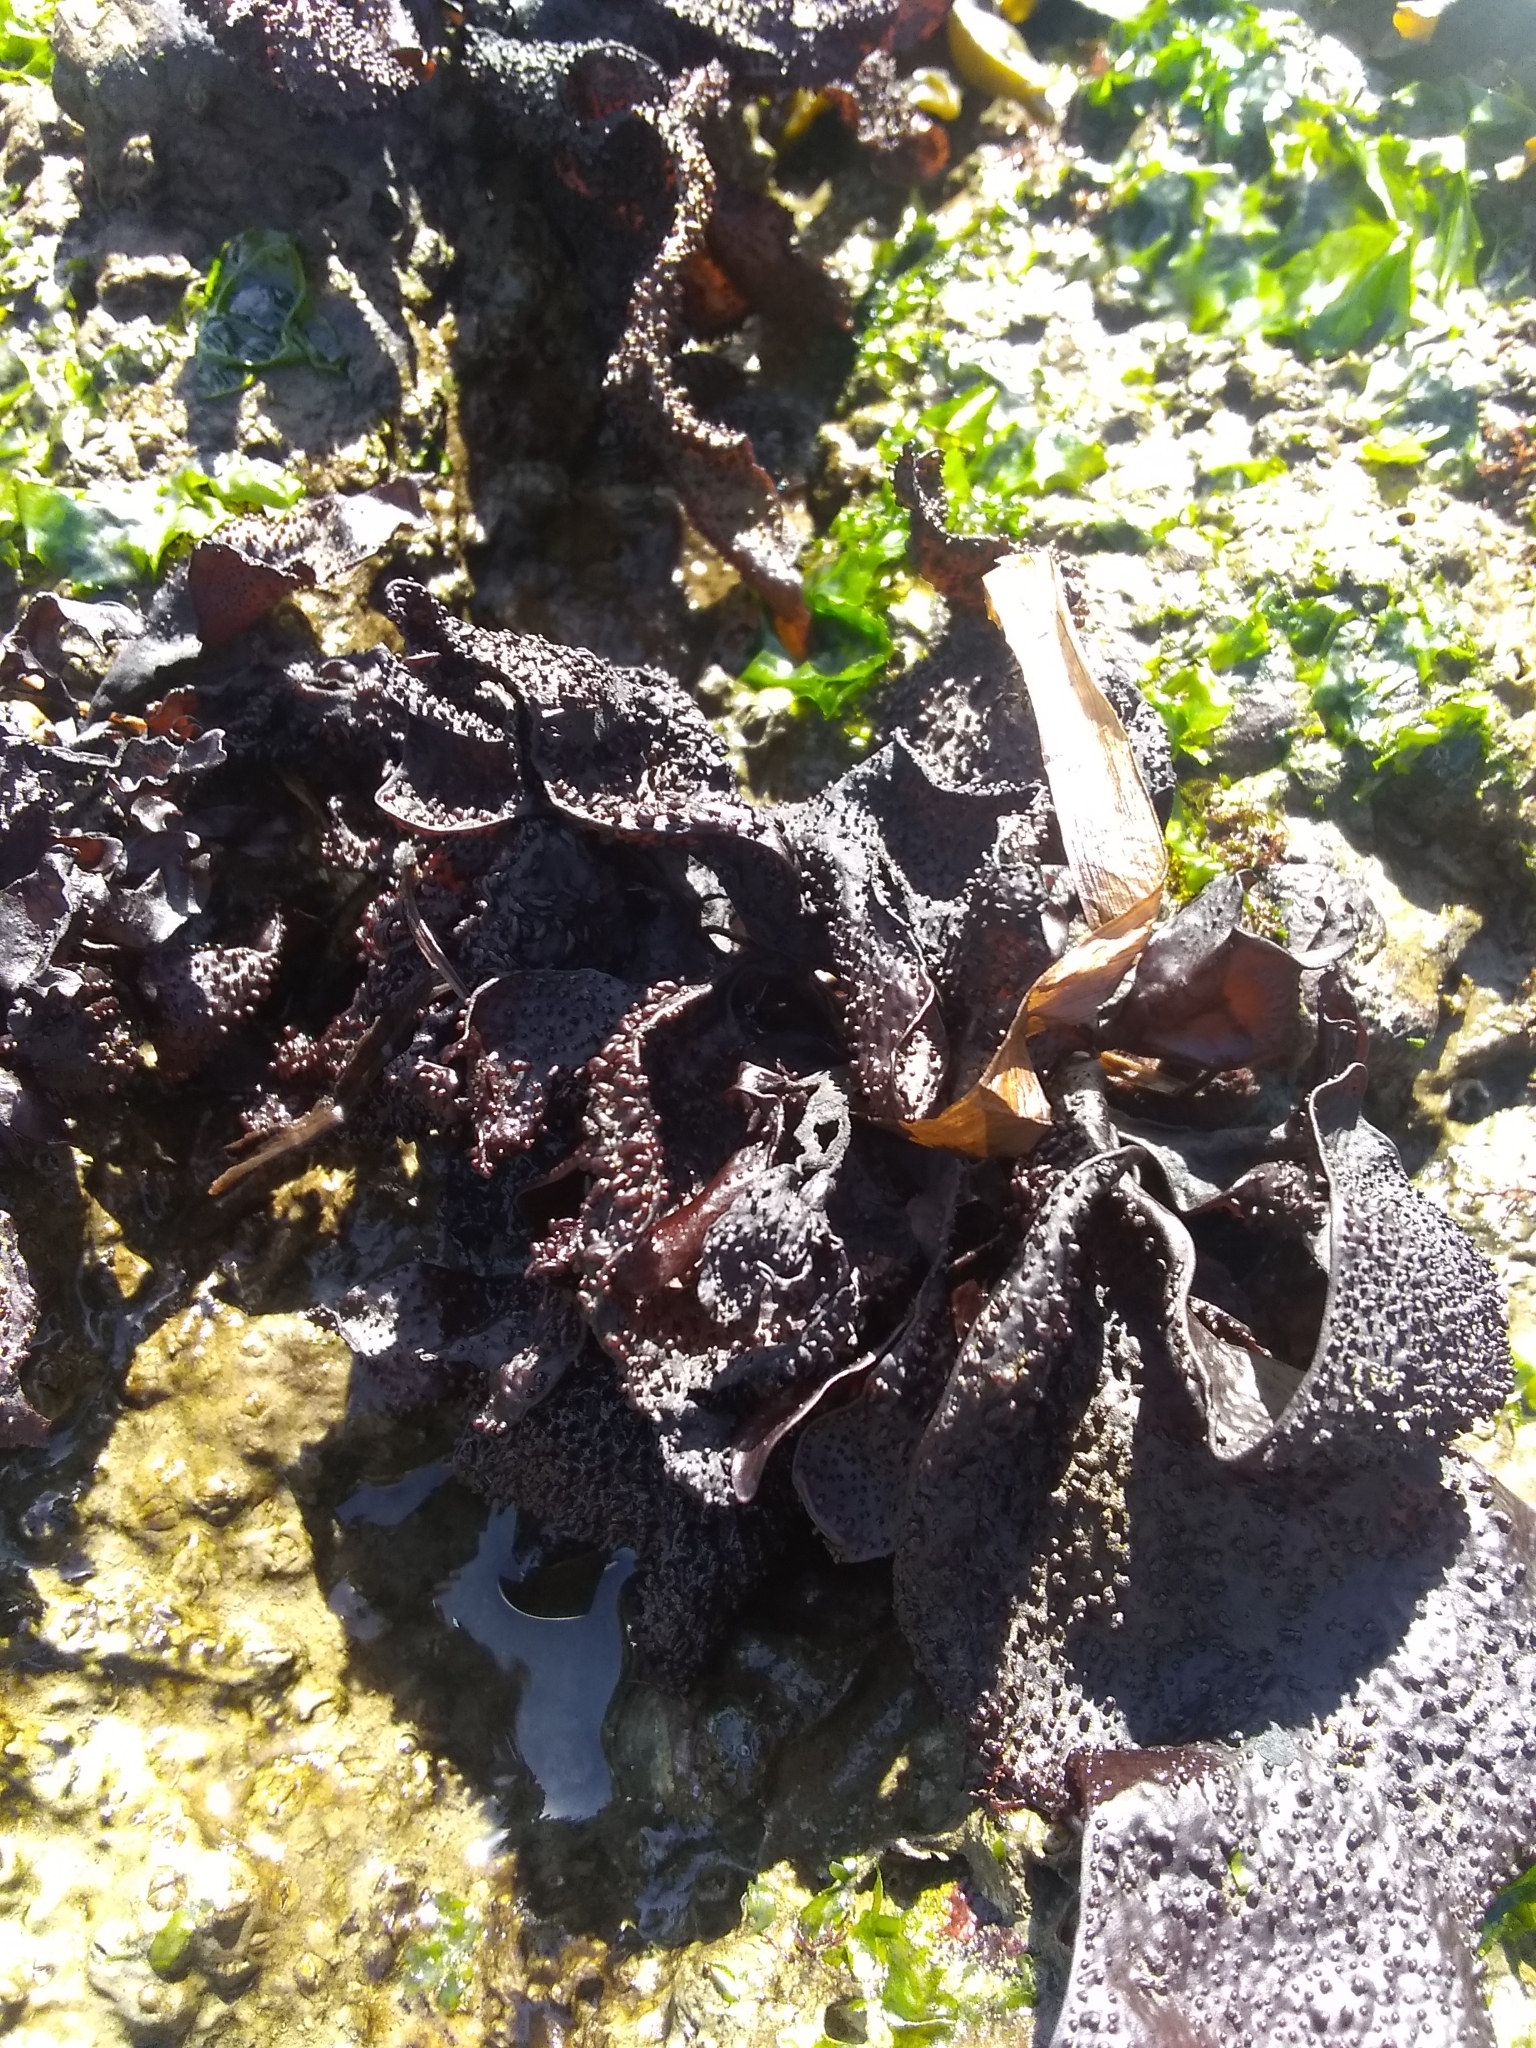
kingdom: Plantae
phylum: Rhodophyta
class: Florideophyceae
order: Gigartinales
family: Phyllophoraceae
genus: Mastocarpus
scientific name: Mastocarpus papillatus
